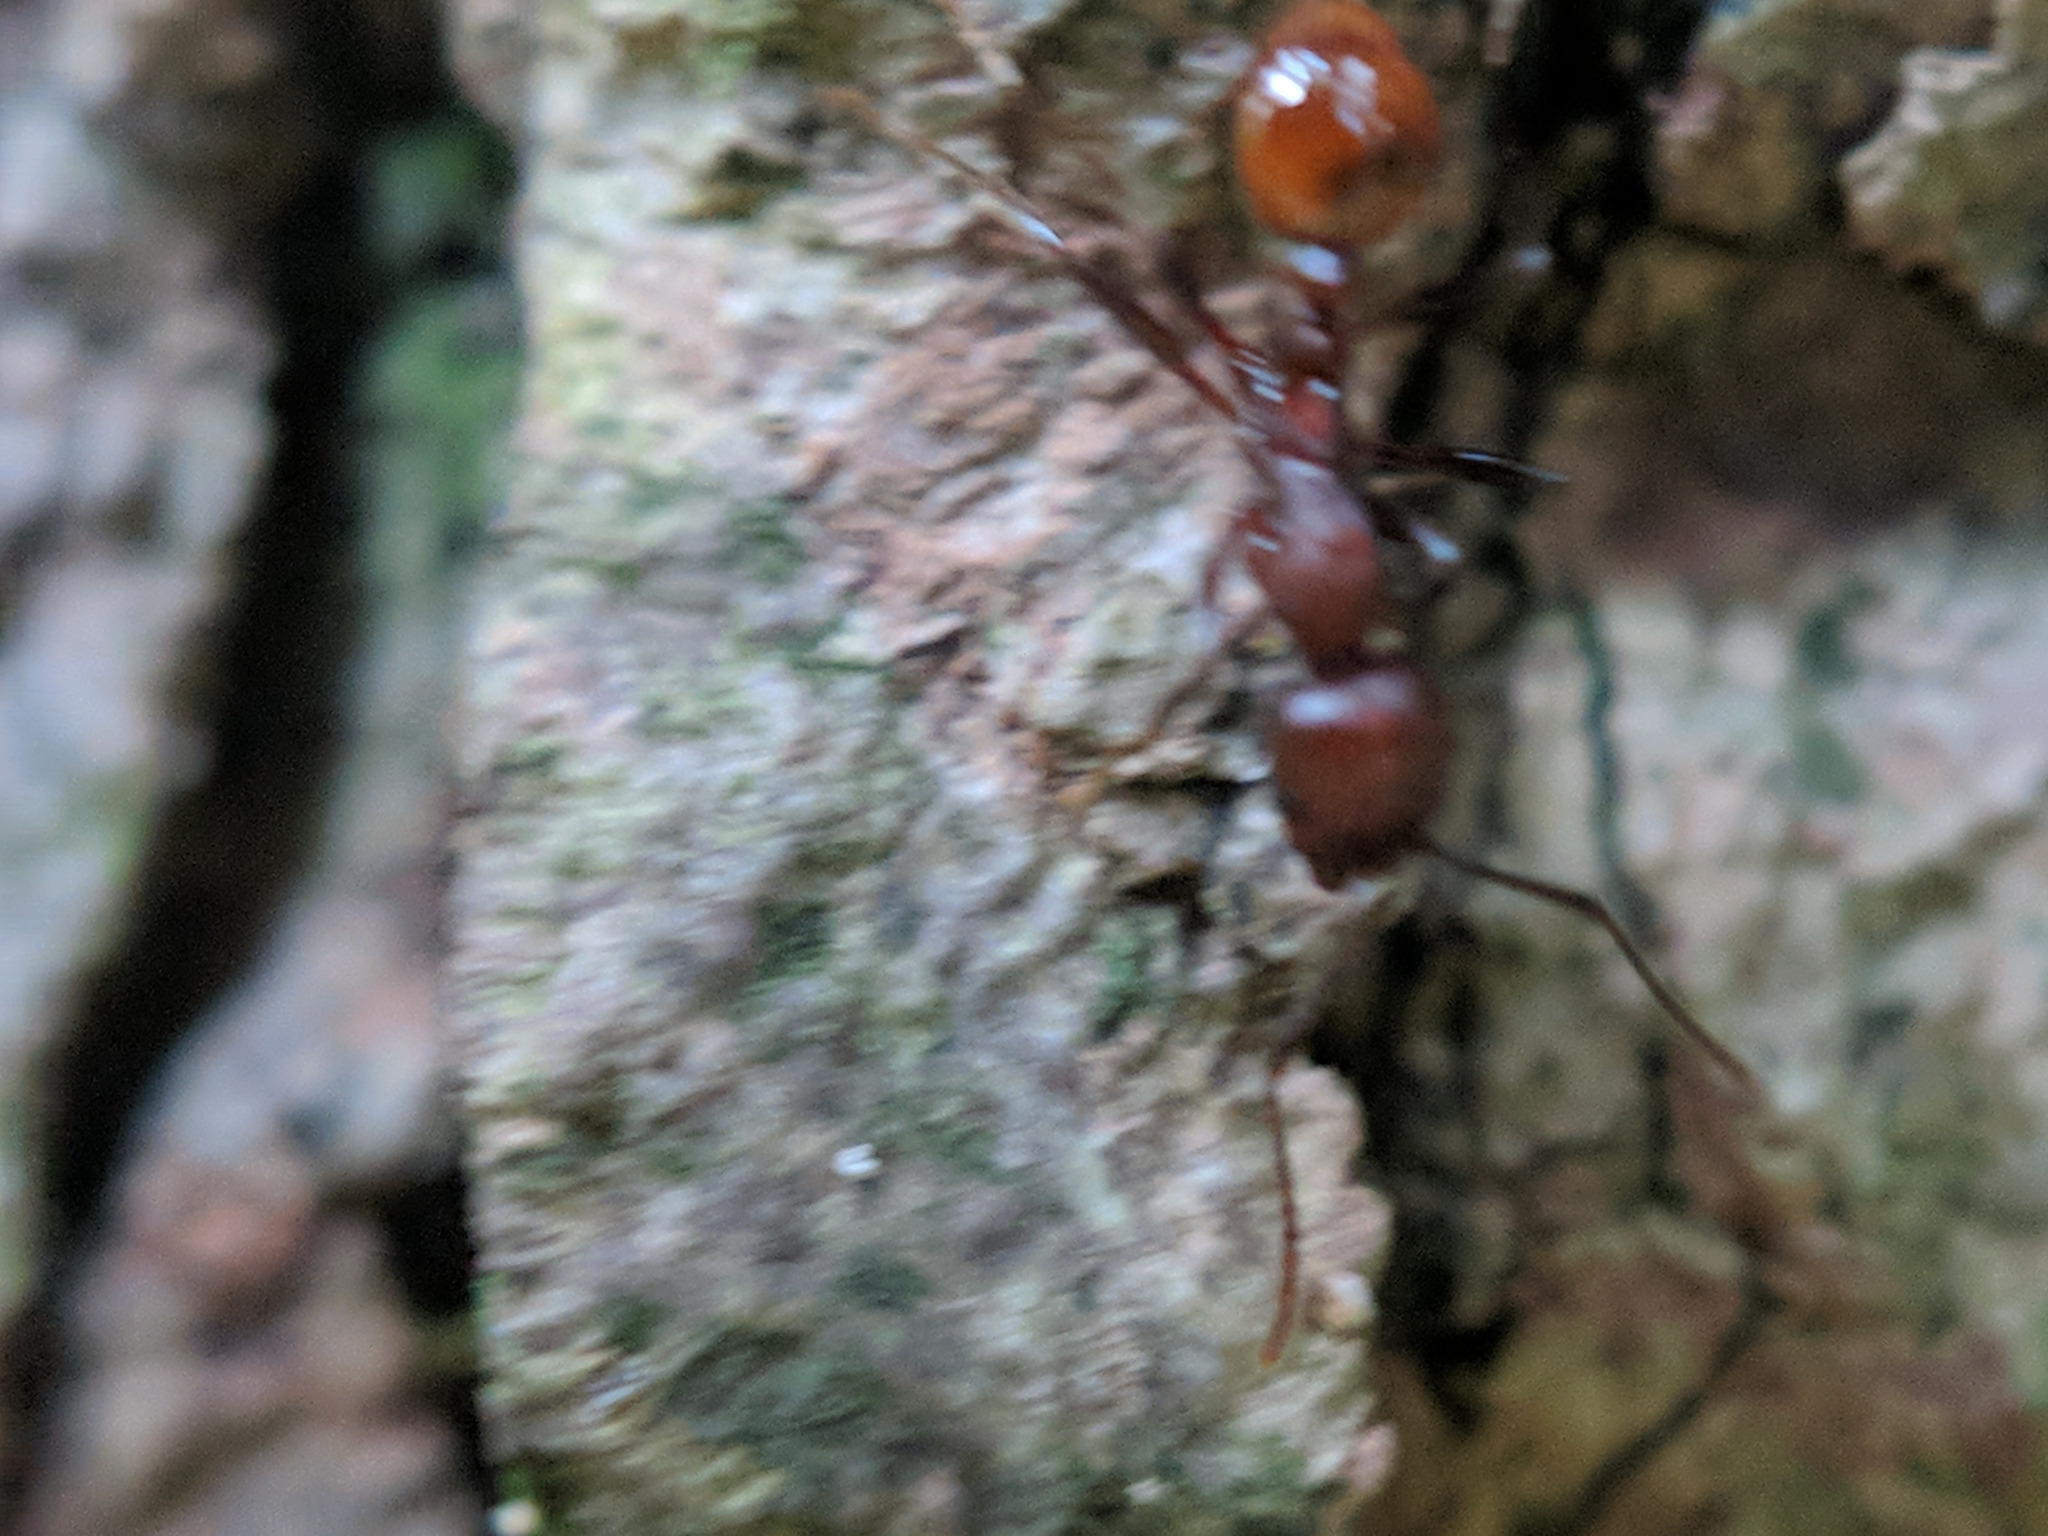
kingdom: Animalia
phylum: Arthropoda
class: Insecta
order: Hymenoptera
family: Formicidae
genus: Aphaenogaster
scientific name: Aphaenogaster tennesseensis
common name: Tennessee thread-waisted ant
